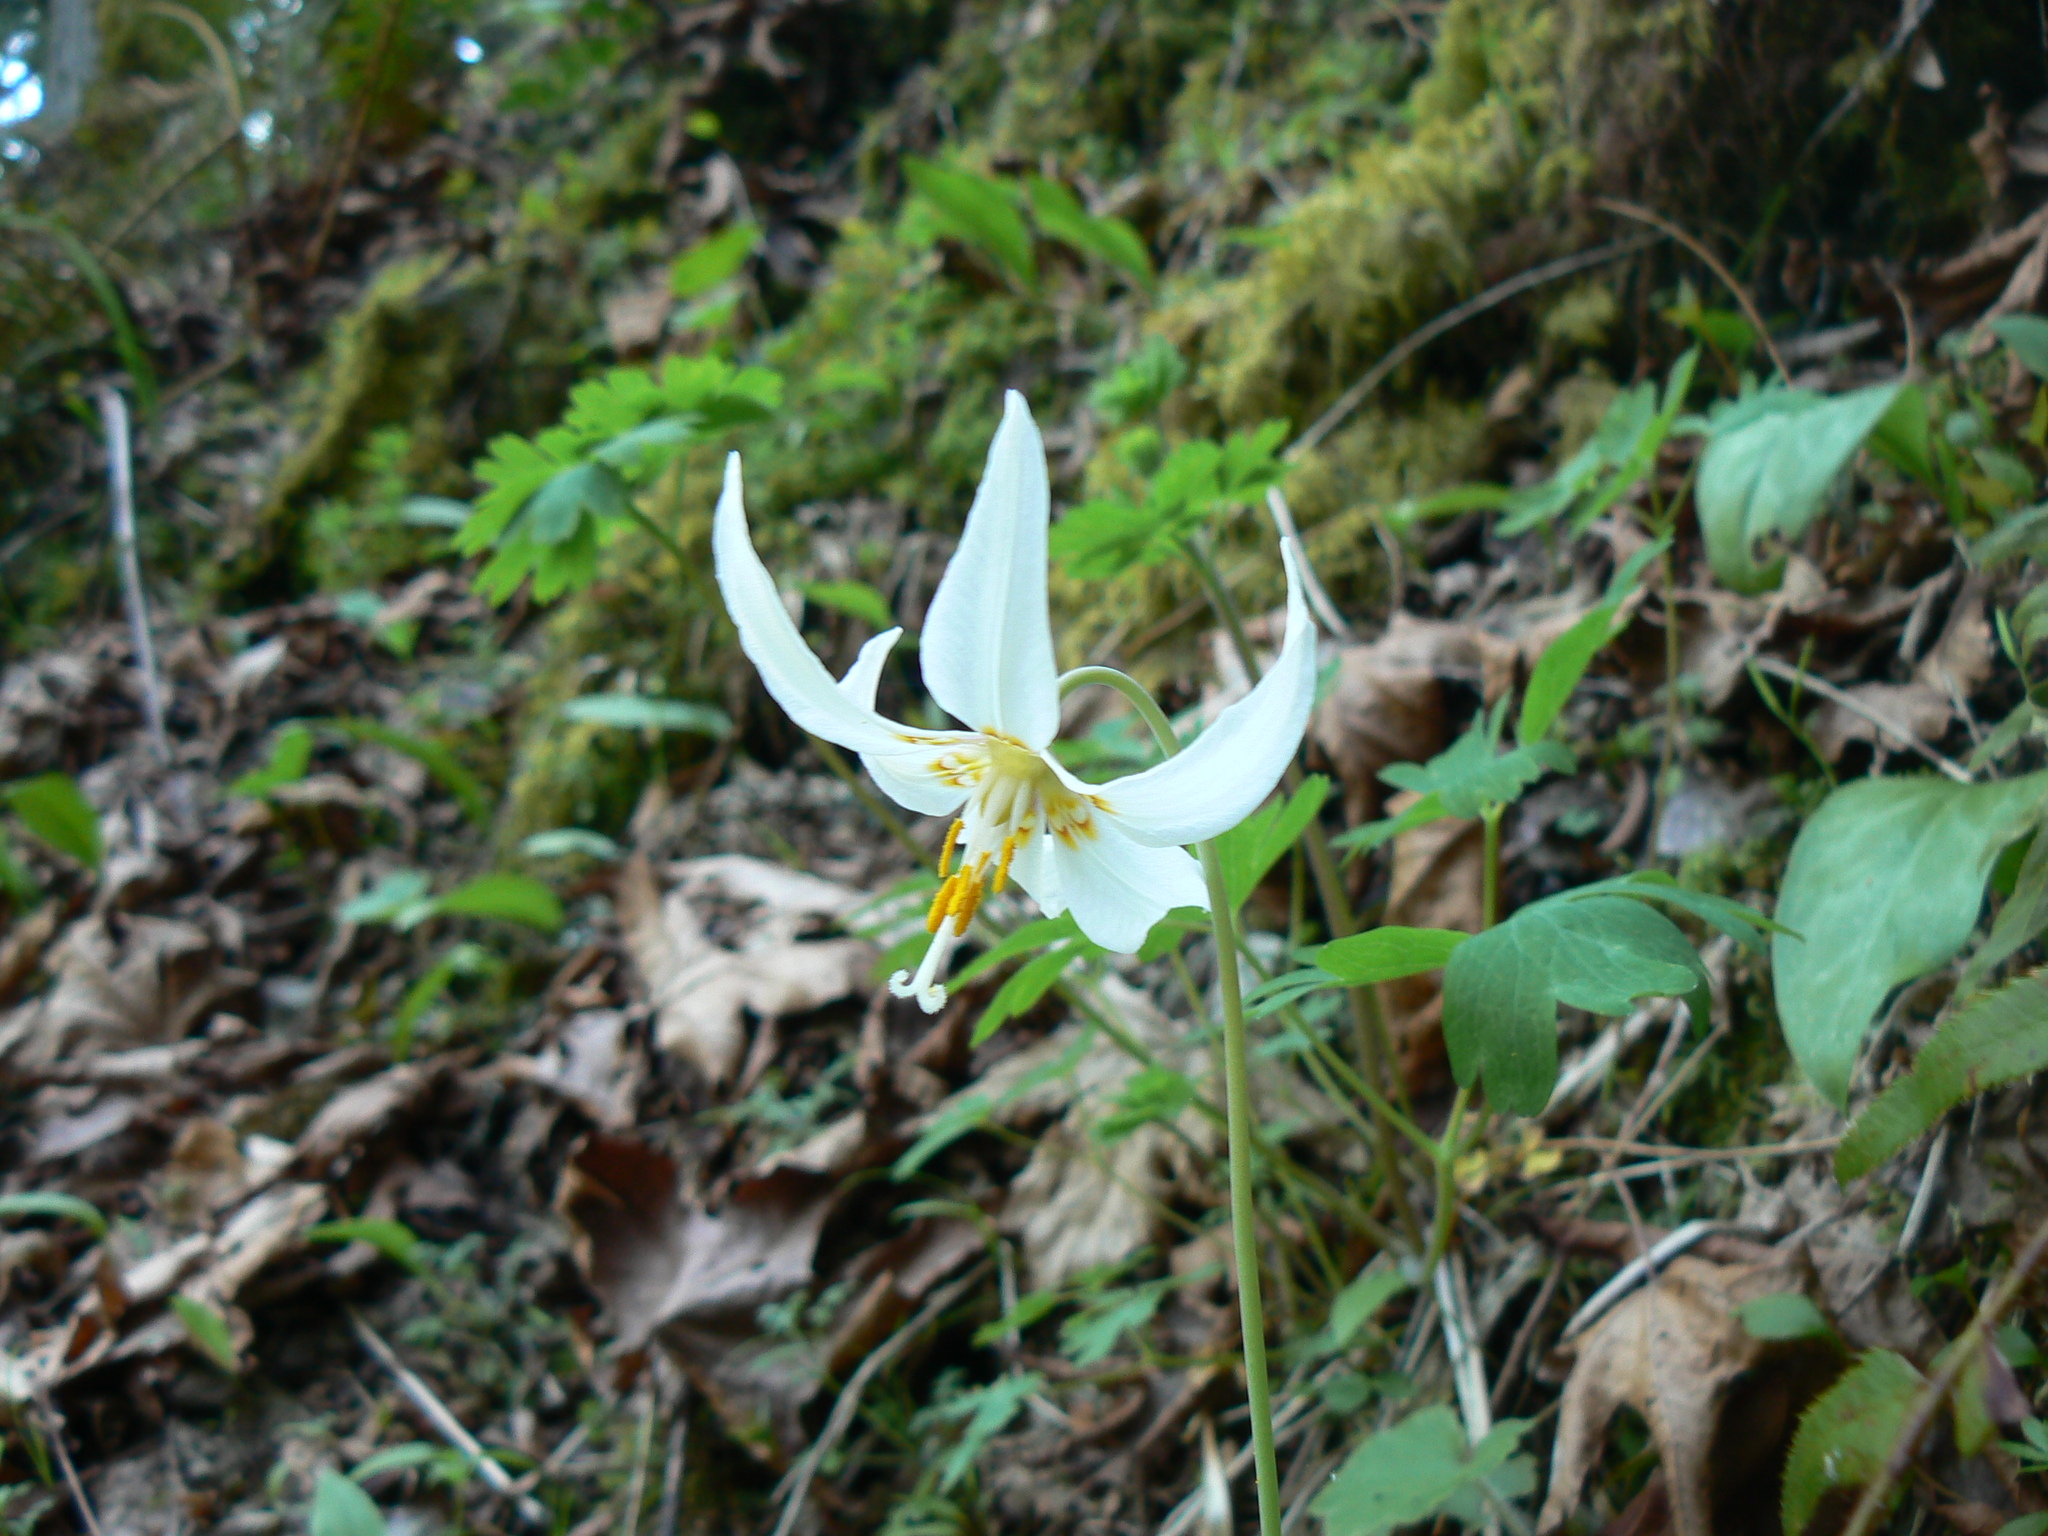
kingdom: Plantae
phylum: Tracheophyta
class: Liliopsida
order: Liliales
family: Liliaceae
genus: Erythronium
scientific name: Erythronium oregonum
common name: Giant adder's-tongue
